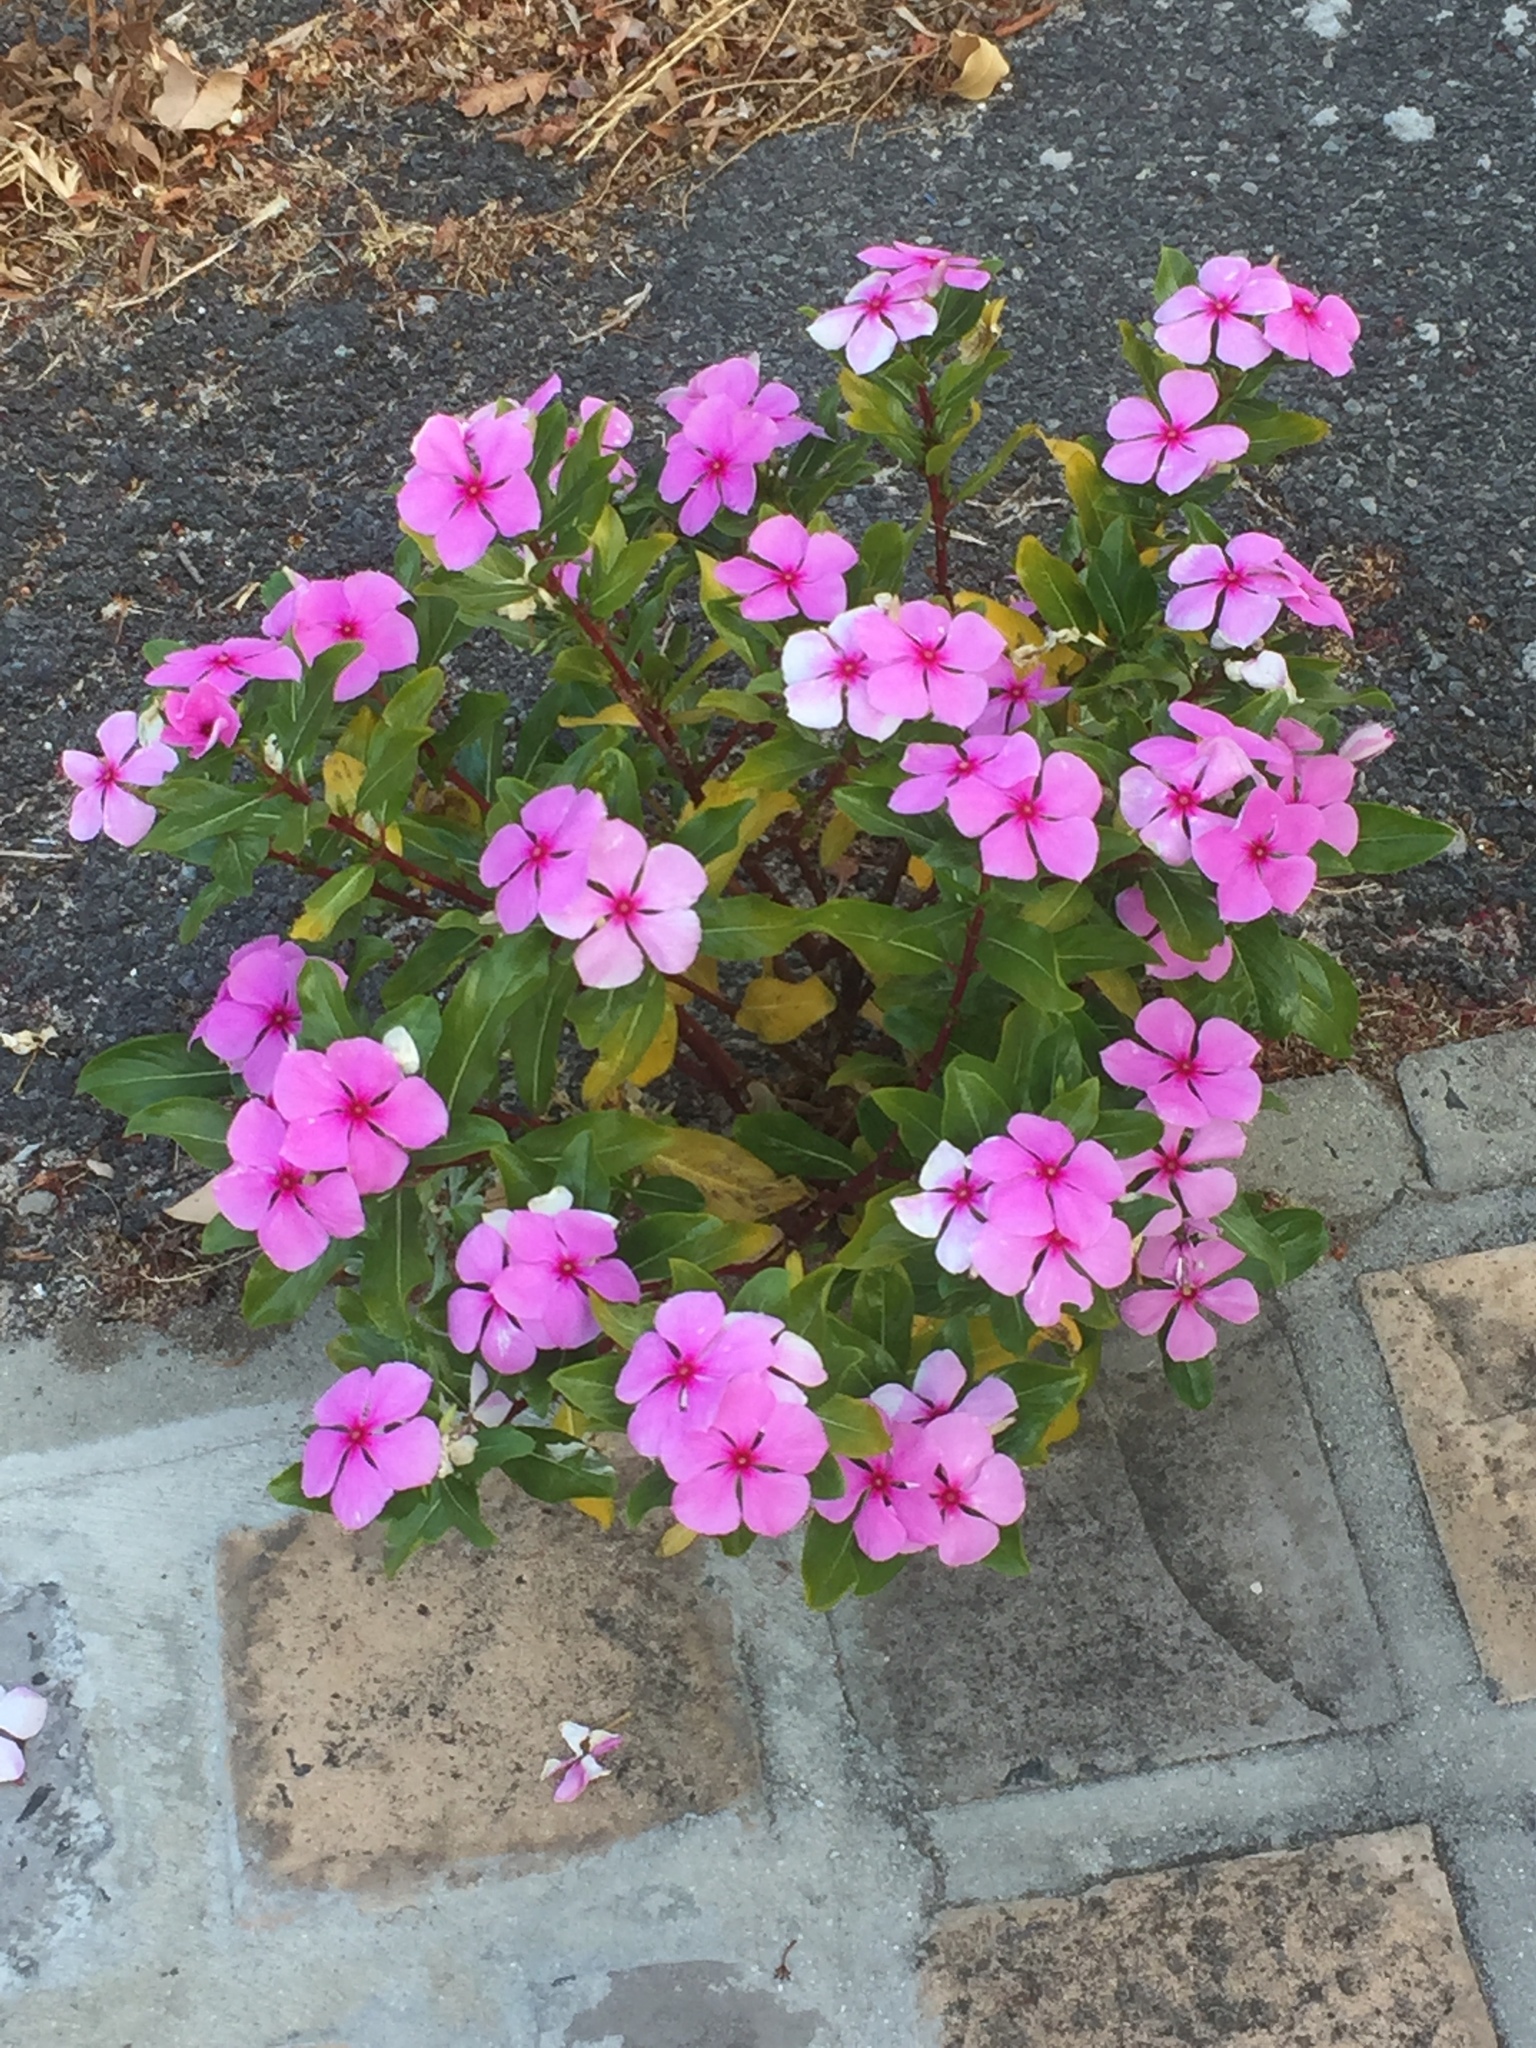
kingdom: Plantae
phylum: Tracheophyta
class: Magnoliopsida
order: Gentianales
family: Apocynaceae
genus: Catharanthus
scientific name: Catharanthus roseus
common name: Madagascar periwinkle
